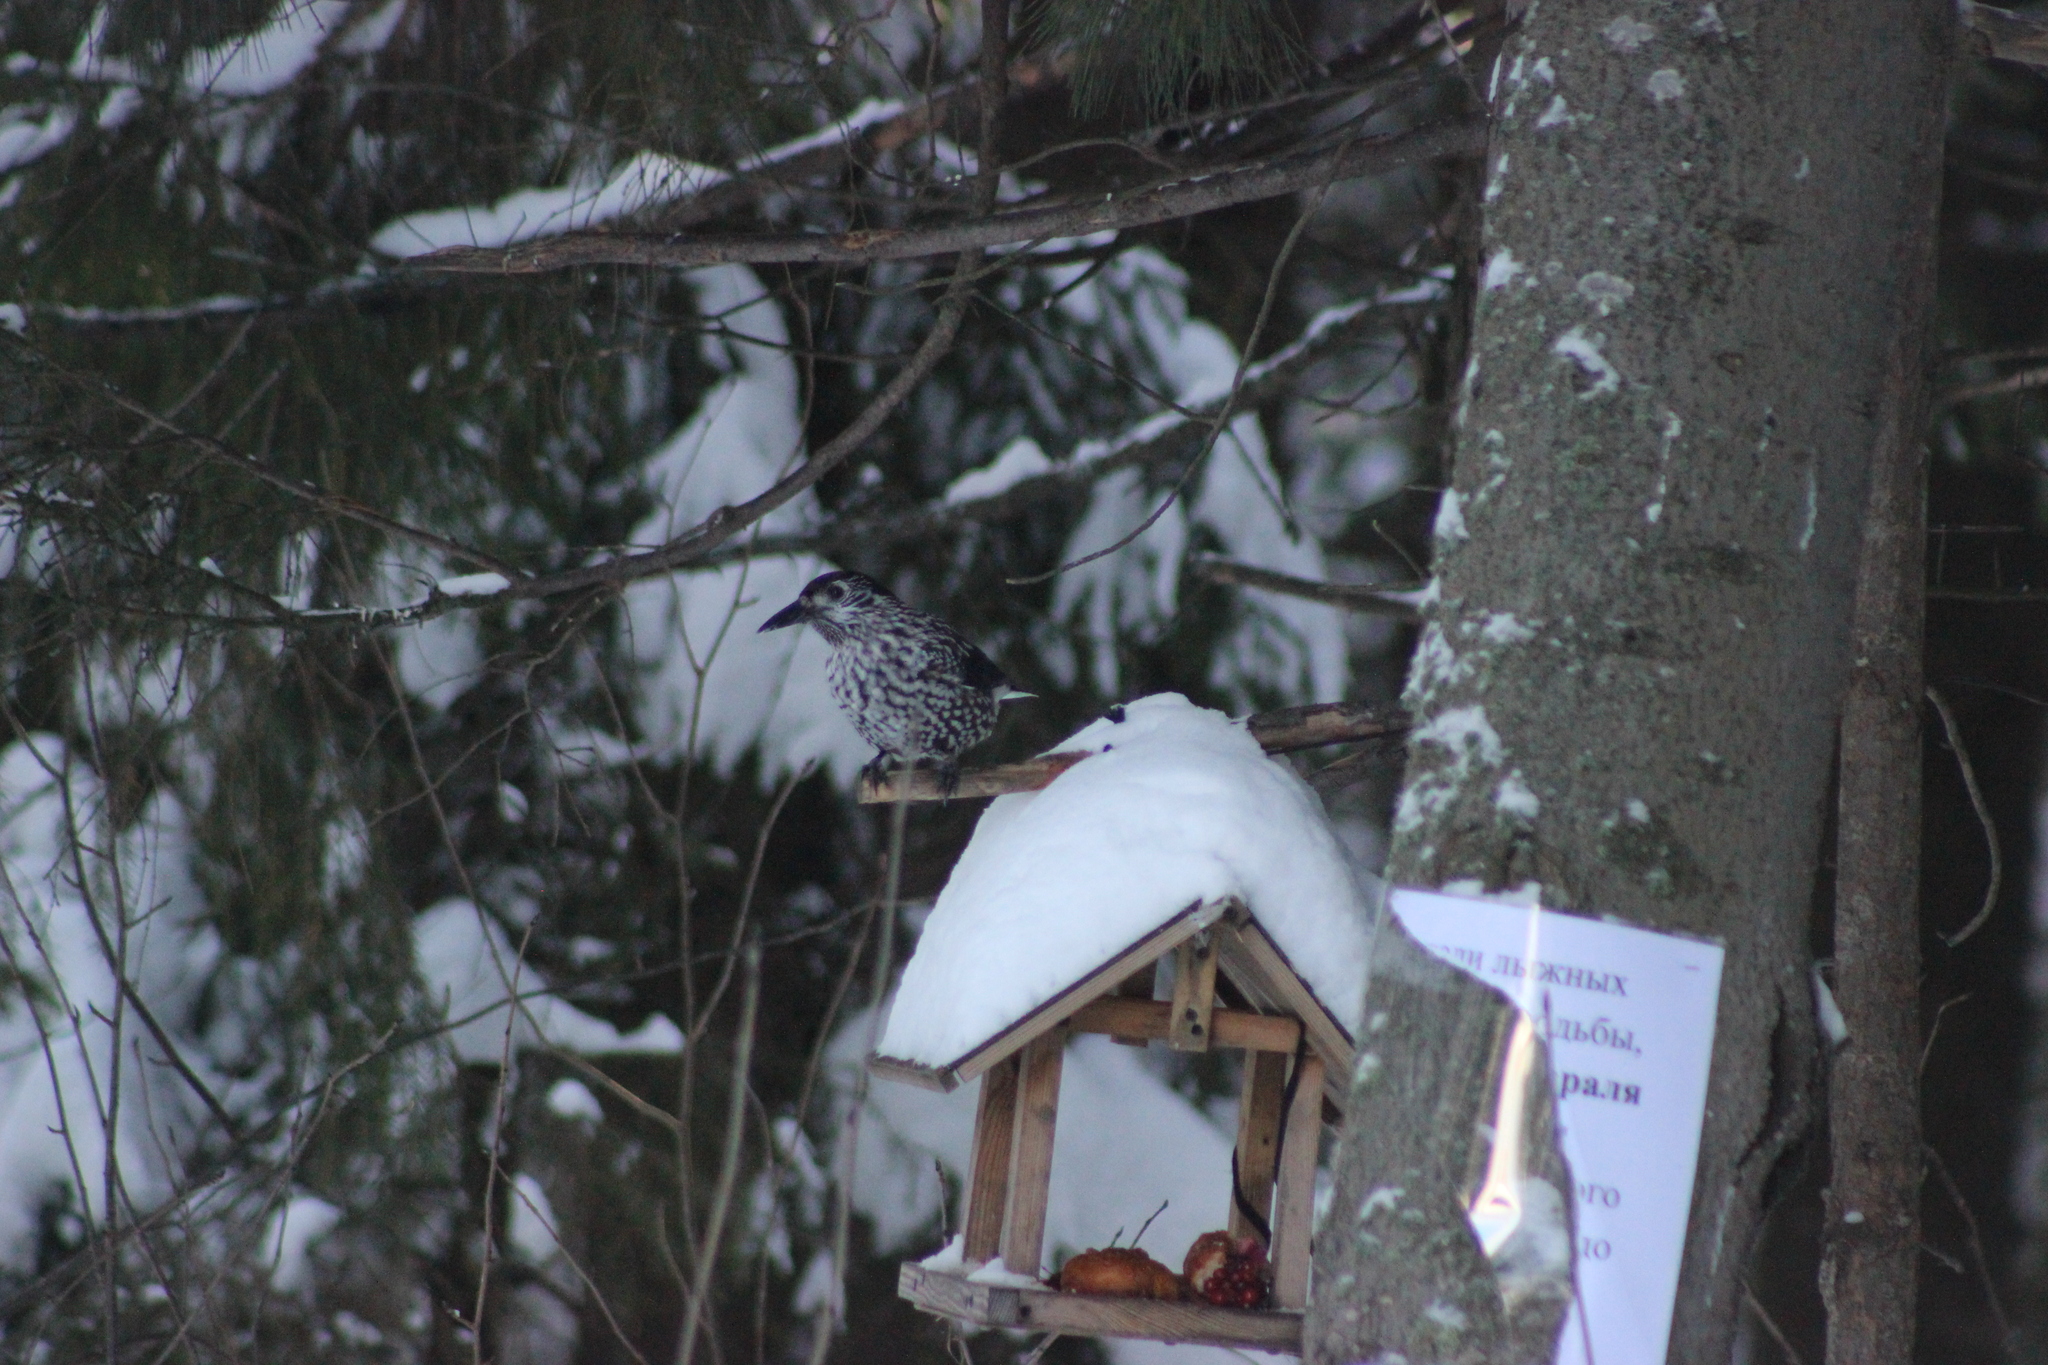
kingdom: Animalia
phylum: Chordata
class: Aves
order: Passeriformes
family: Corvidae
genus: Nucifraga
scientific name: Nucifraga caryocatactes
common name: Spotted nutcracker
